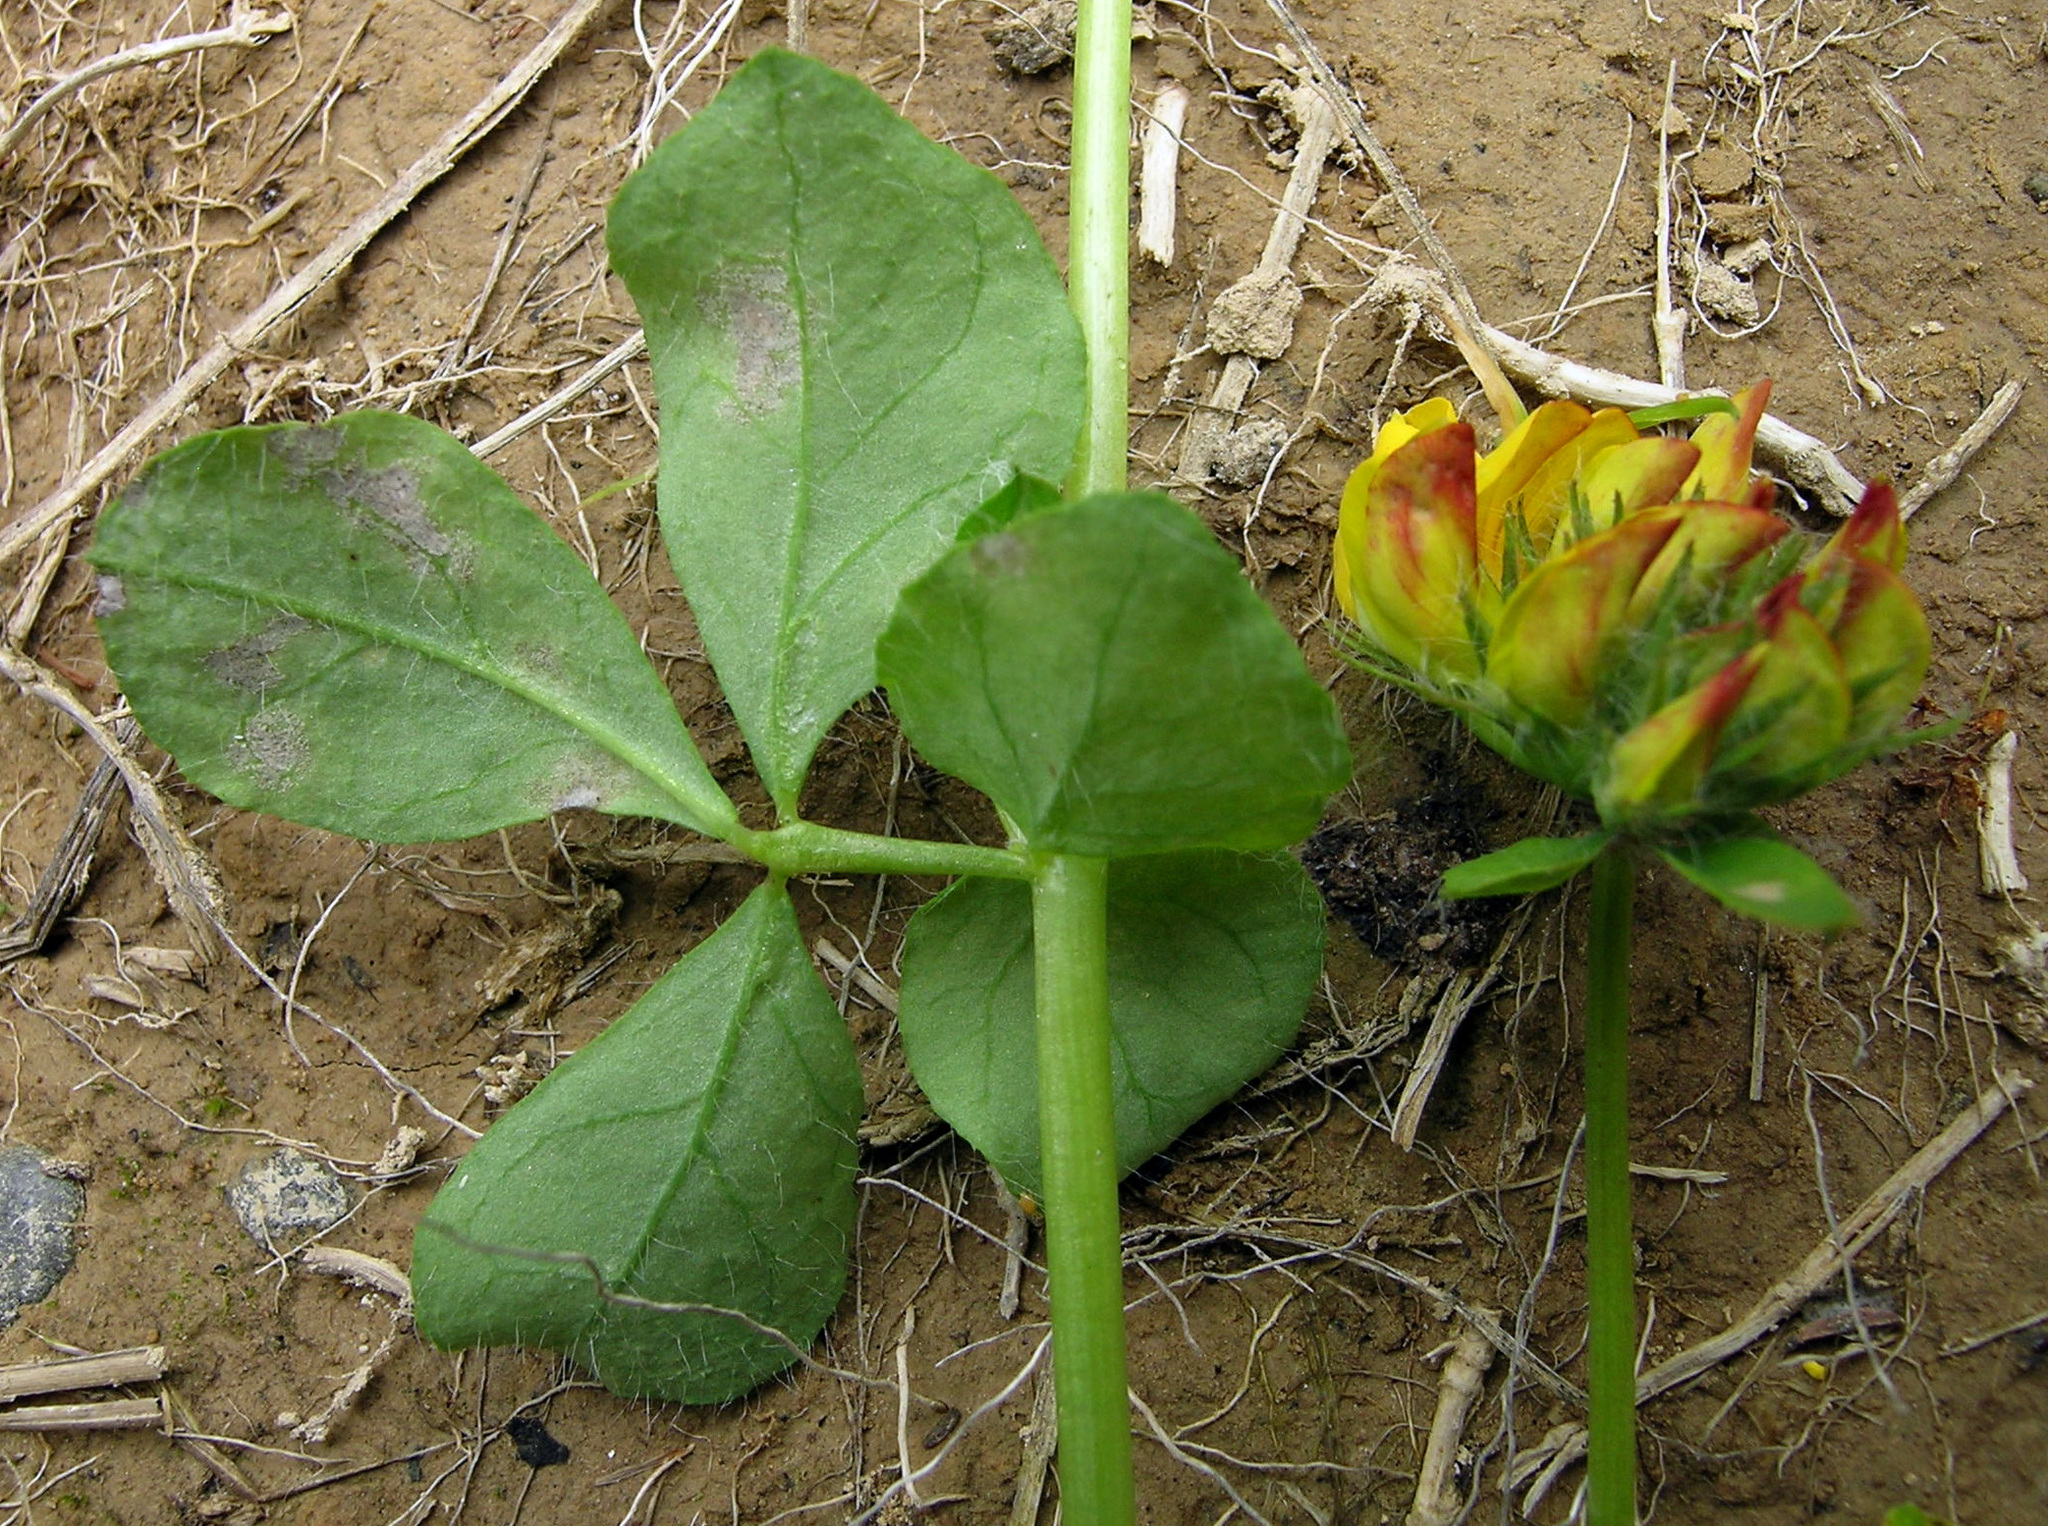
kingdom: Fungi
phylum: Ascomycota
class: Dothideomycetes
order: Mycosphaerellales
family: Mycosphaerellaceae
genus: Ramularia
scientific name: Ramularia sphaeroidea
